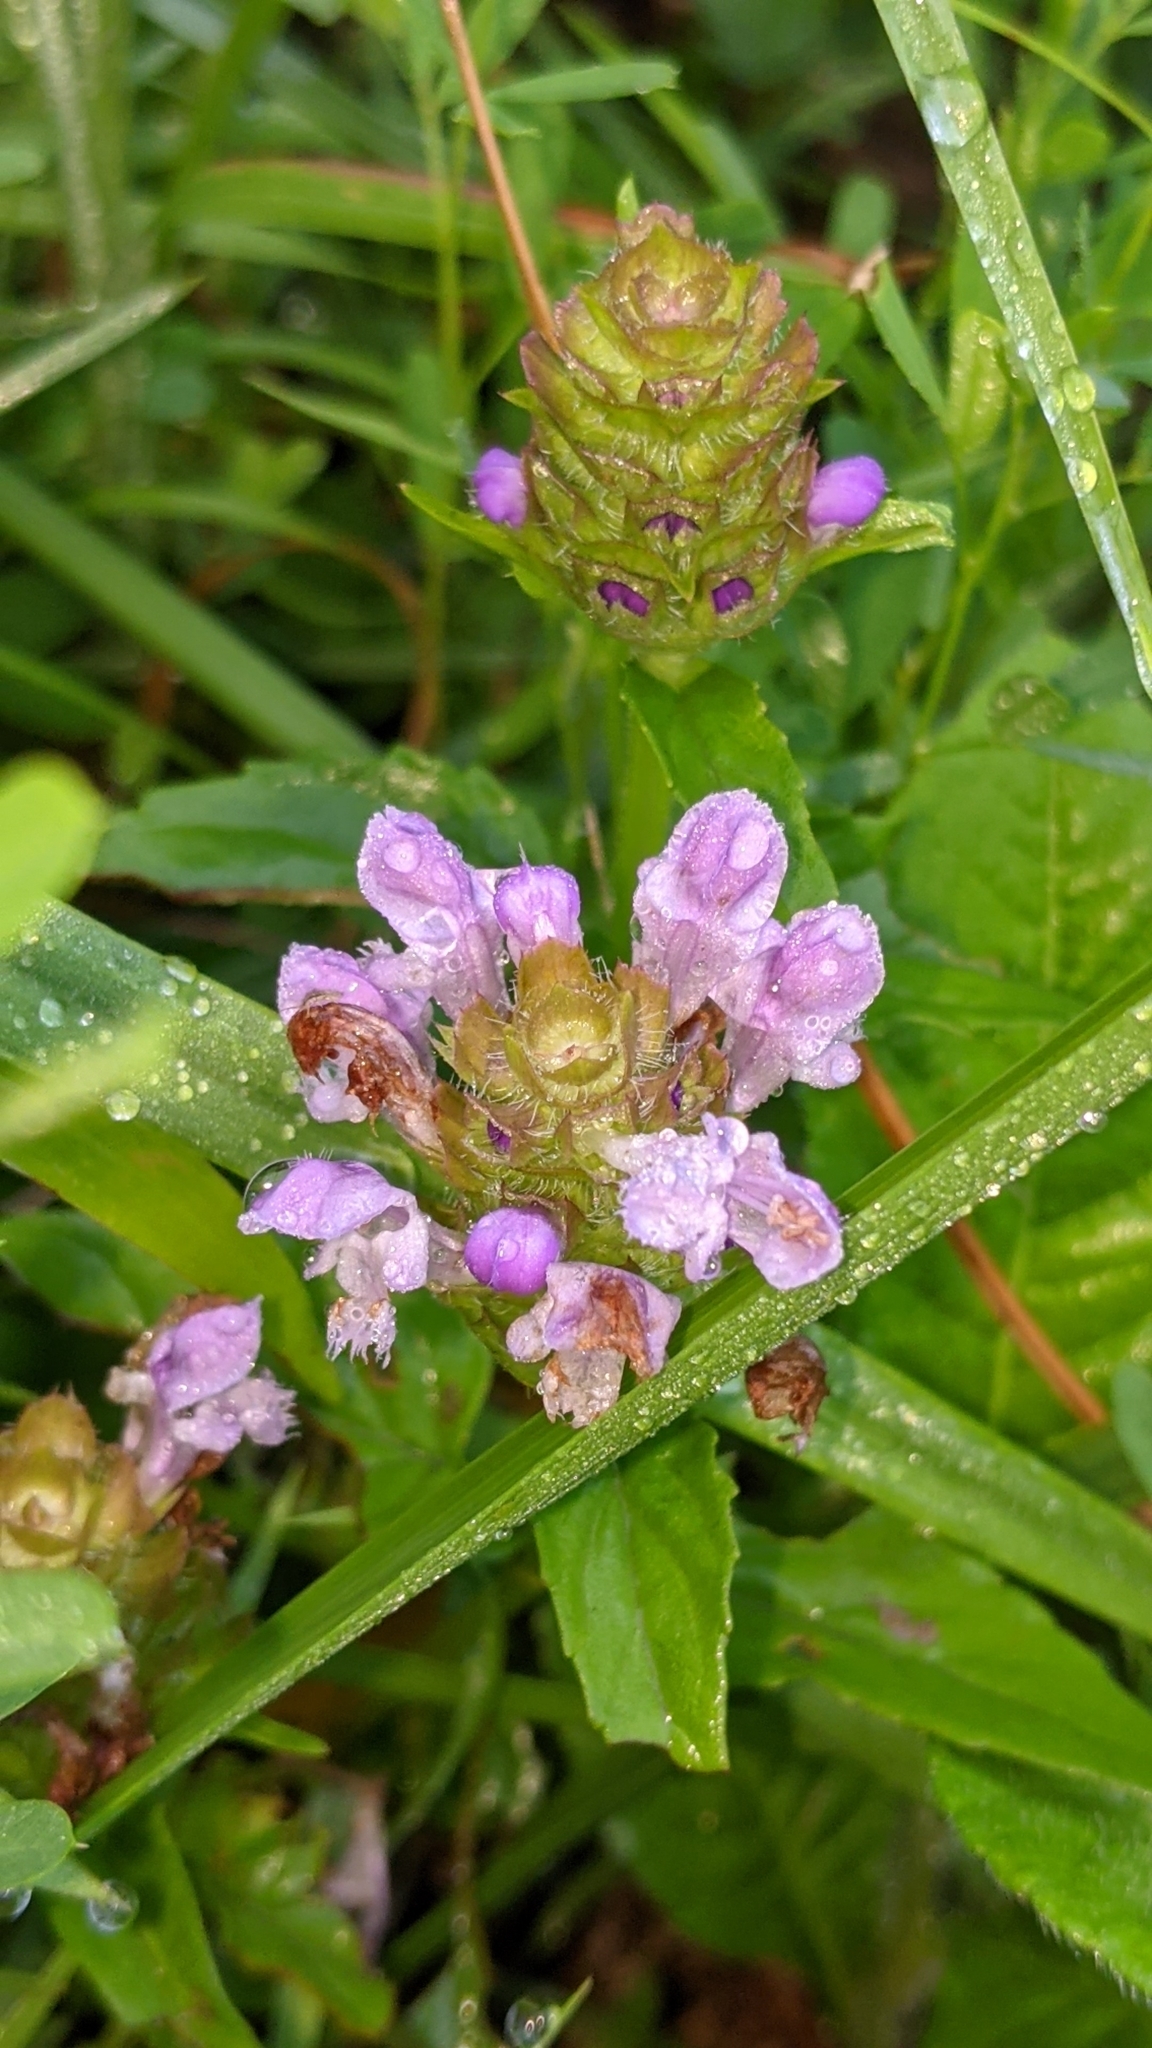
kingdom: Plantae
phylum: Tracheophyta
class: Magnoliopsida
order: Lamiales
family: Lamiaceae
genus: Prunella
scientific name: Prunella vulgaris
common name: Heal-all
